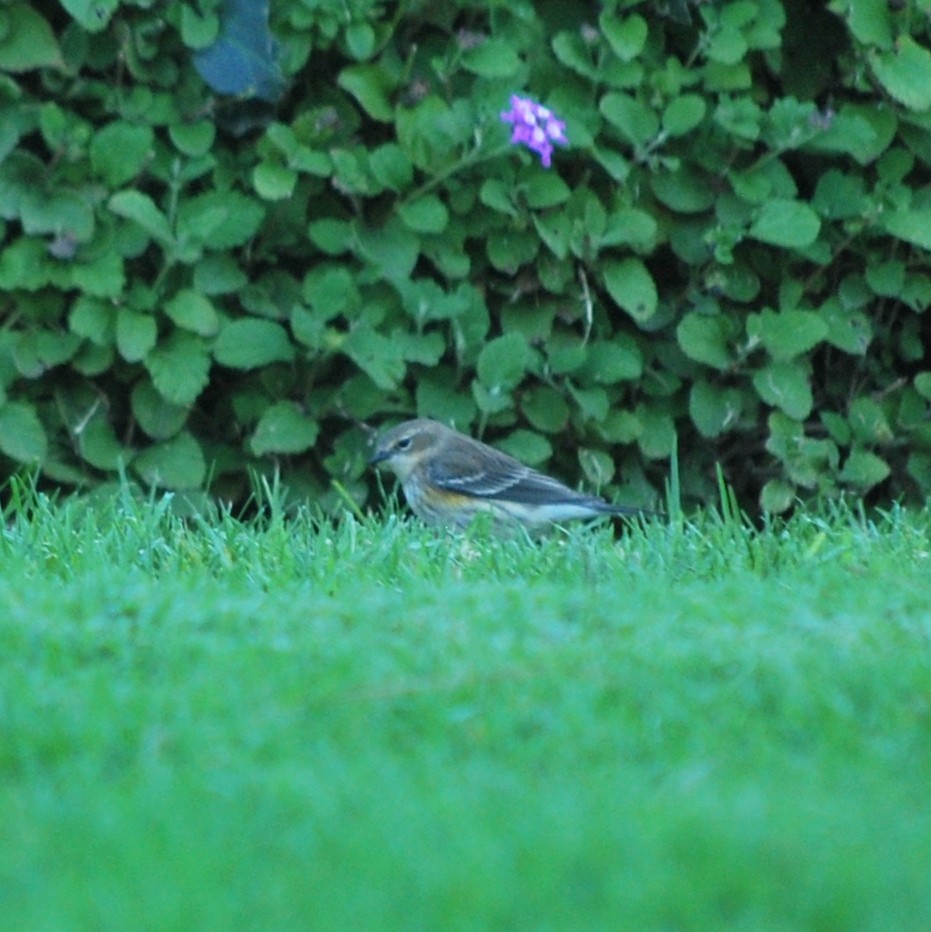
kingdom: Animalia
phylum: Chordata
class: Aves
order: Passeriformes
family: Parulidae
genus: Setophaga
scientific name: Setophaga coronata
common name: Myrtle warbler
